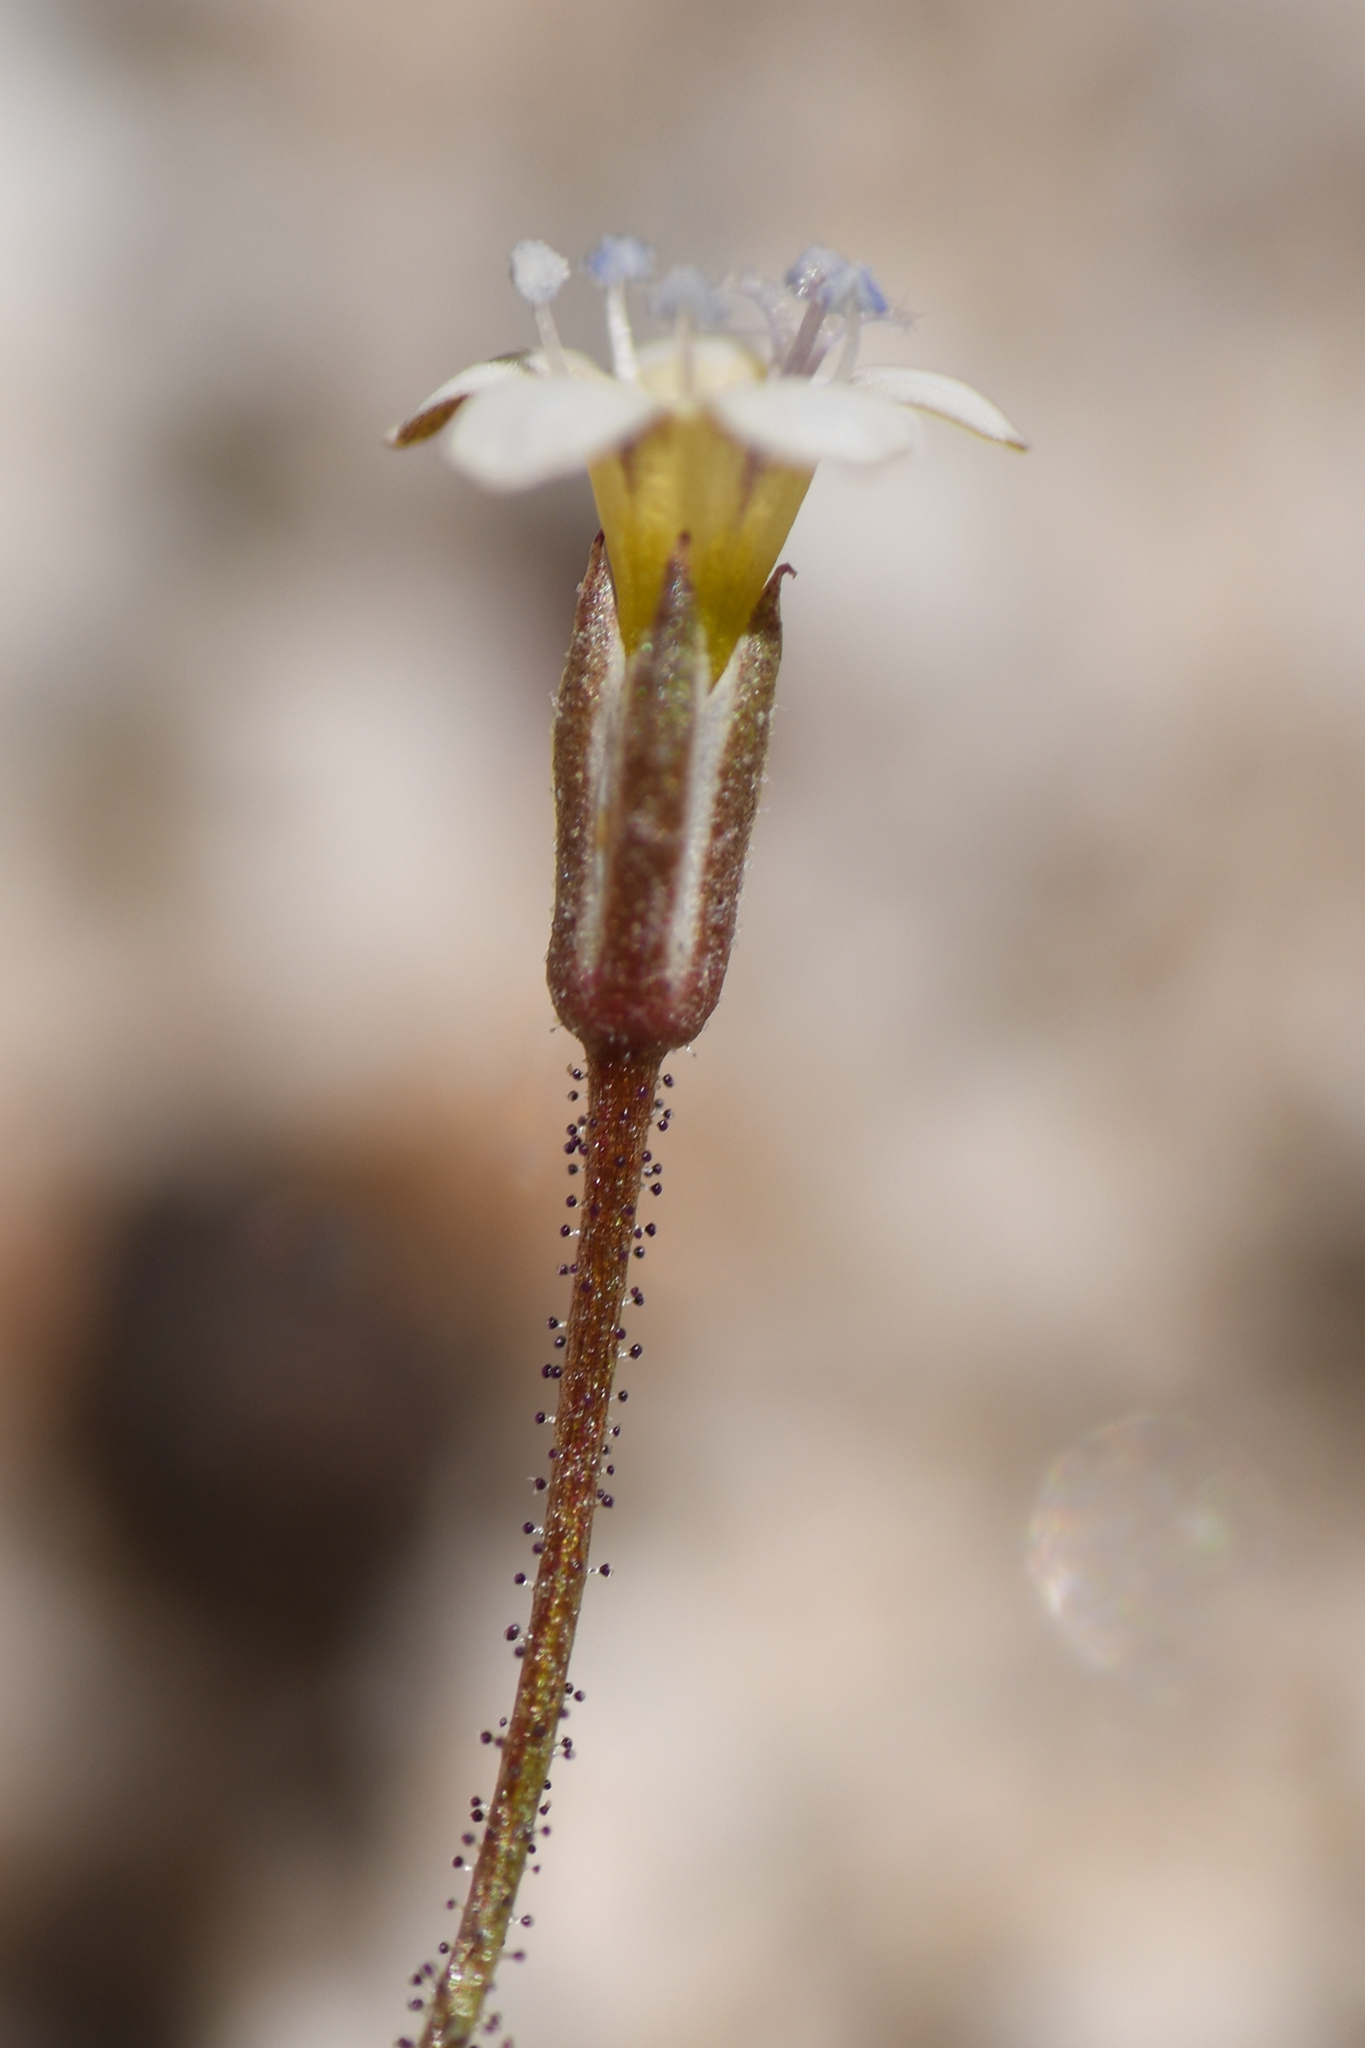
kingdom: Plantae
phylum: Tracheophyta
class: Magnoliopsida
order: Ericales
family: Polemoniaceae
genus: Gilia
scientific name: Gilia mexicana
